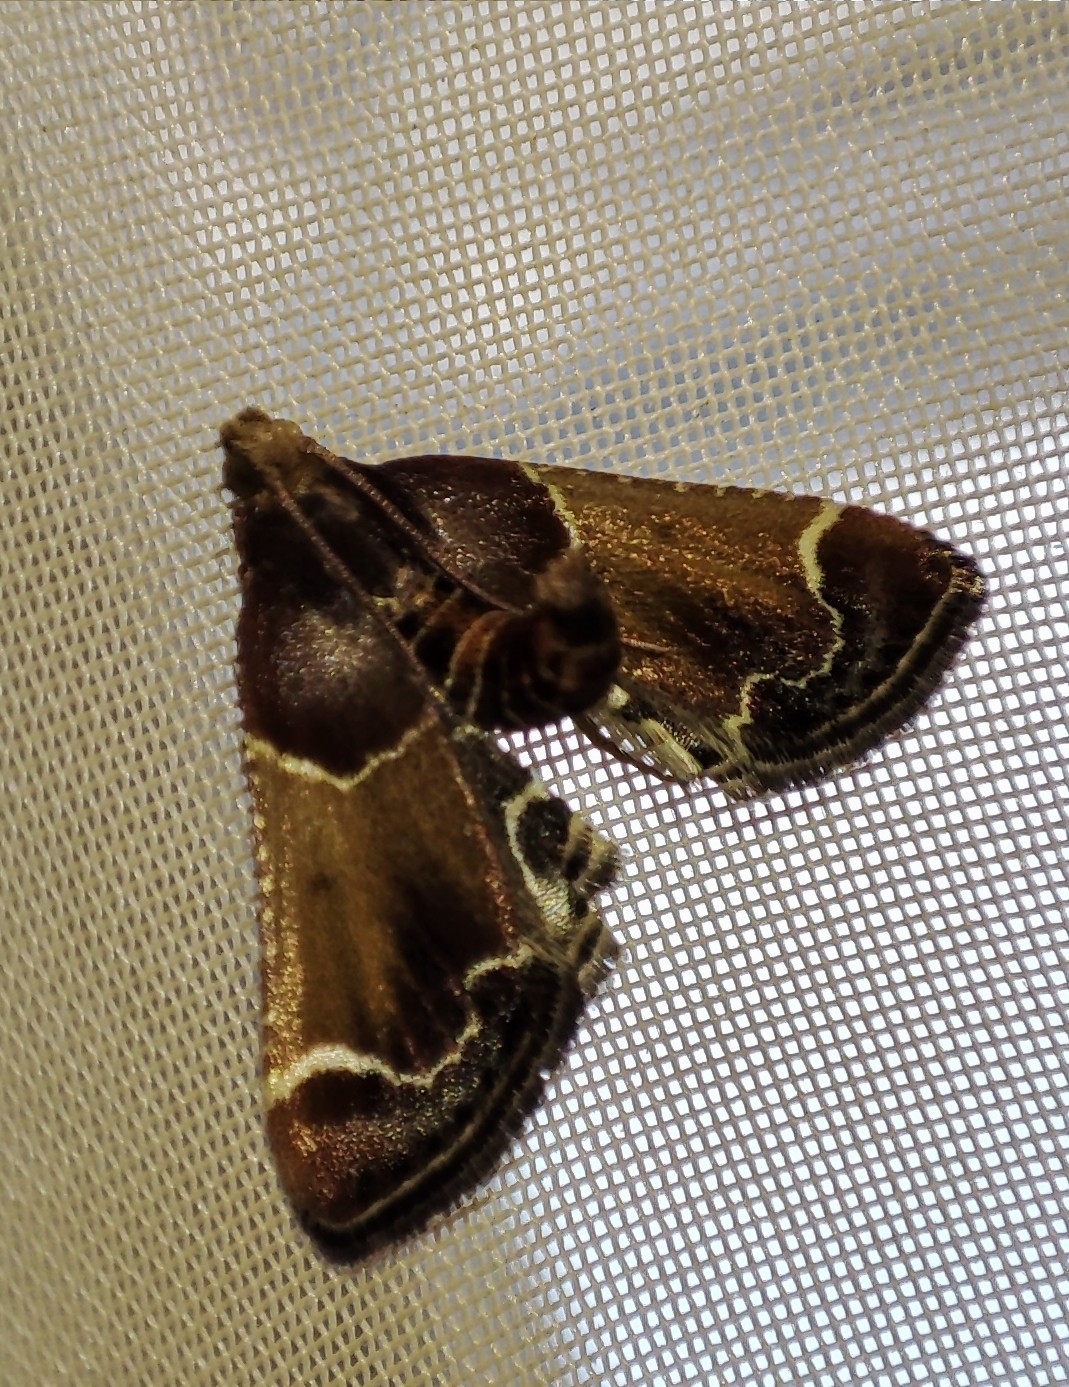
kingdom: Animalia
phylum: Arthropoda
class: Insecta
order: Lepidoptera
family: Pyralidae
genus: Pyralis
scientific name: Pyralis farinalis
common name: Meal moth
